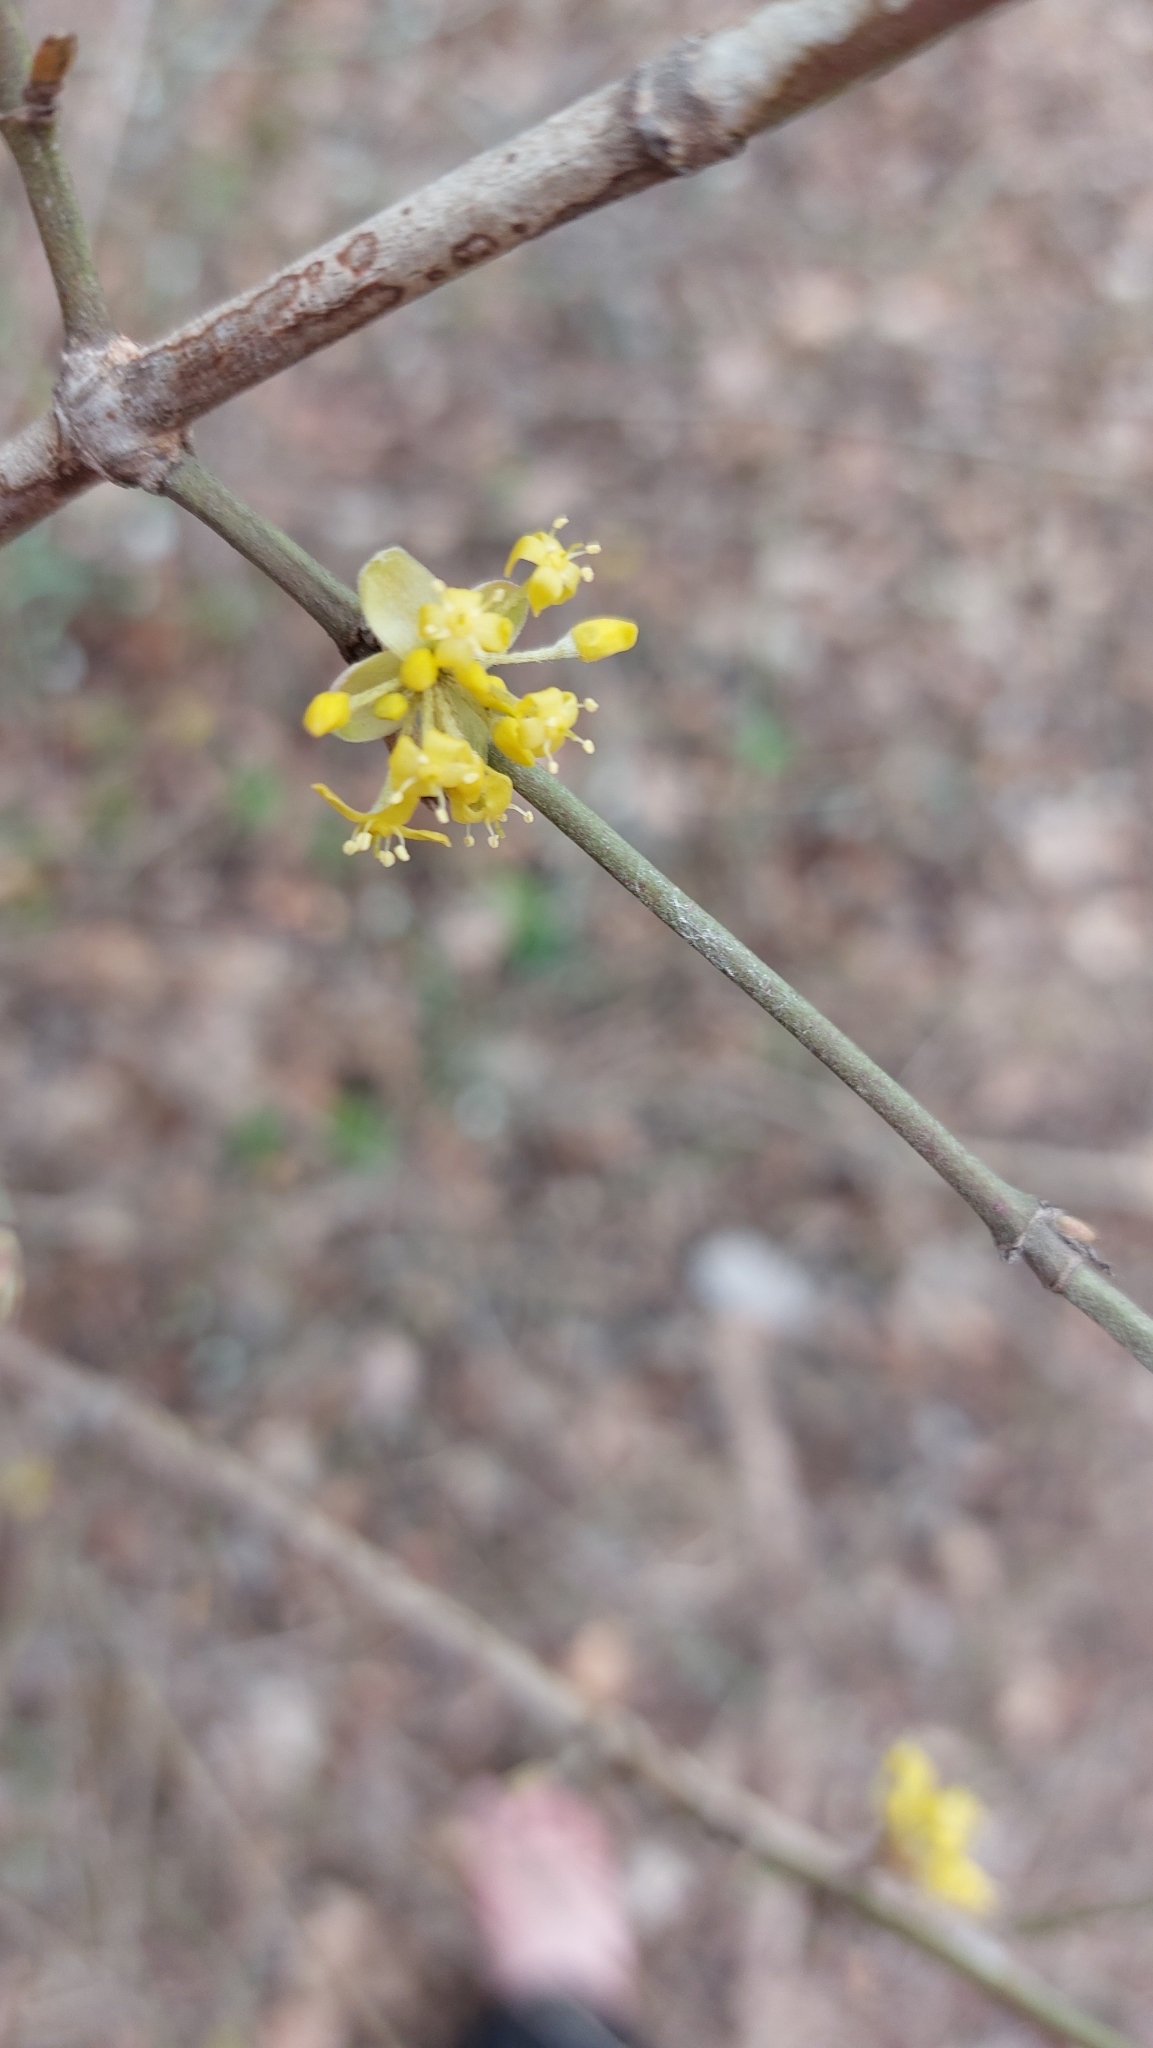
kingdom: Plantae
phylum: Tracheophyta
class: Magnoliopsida
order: Cornales
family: Cornaceae
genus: Cornus
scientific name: Cornus mas
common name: Cornelian-cherry
